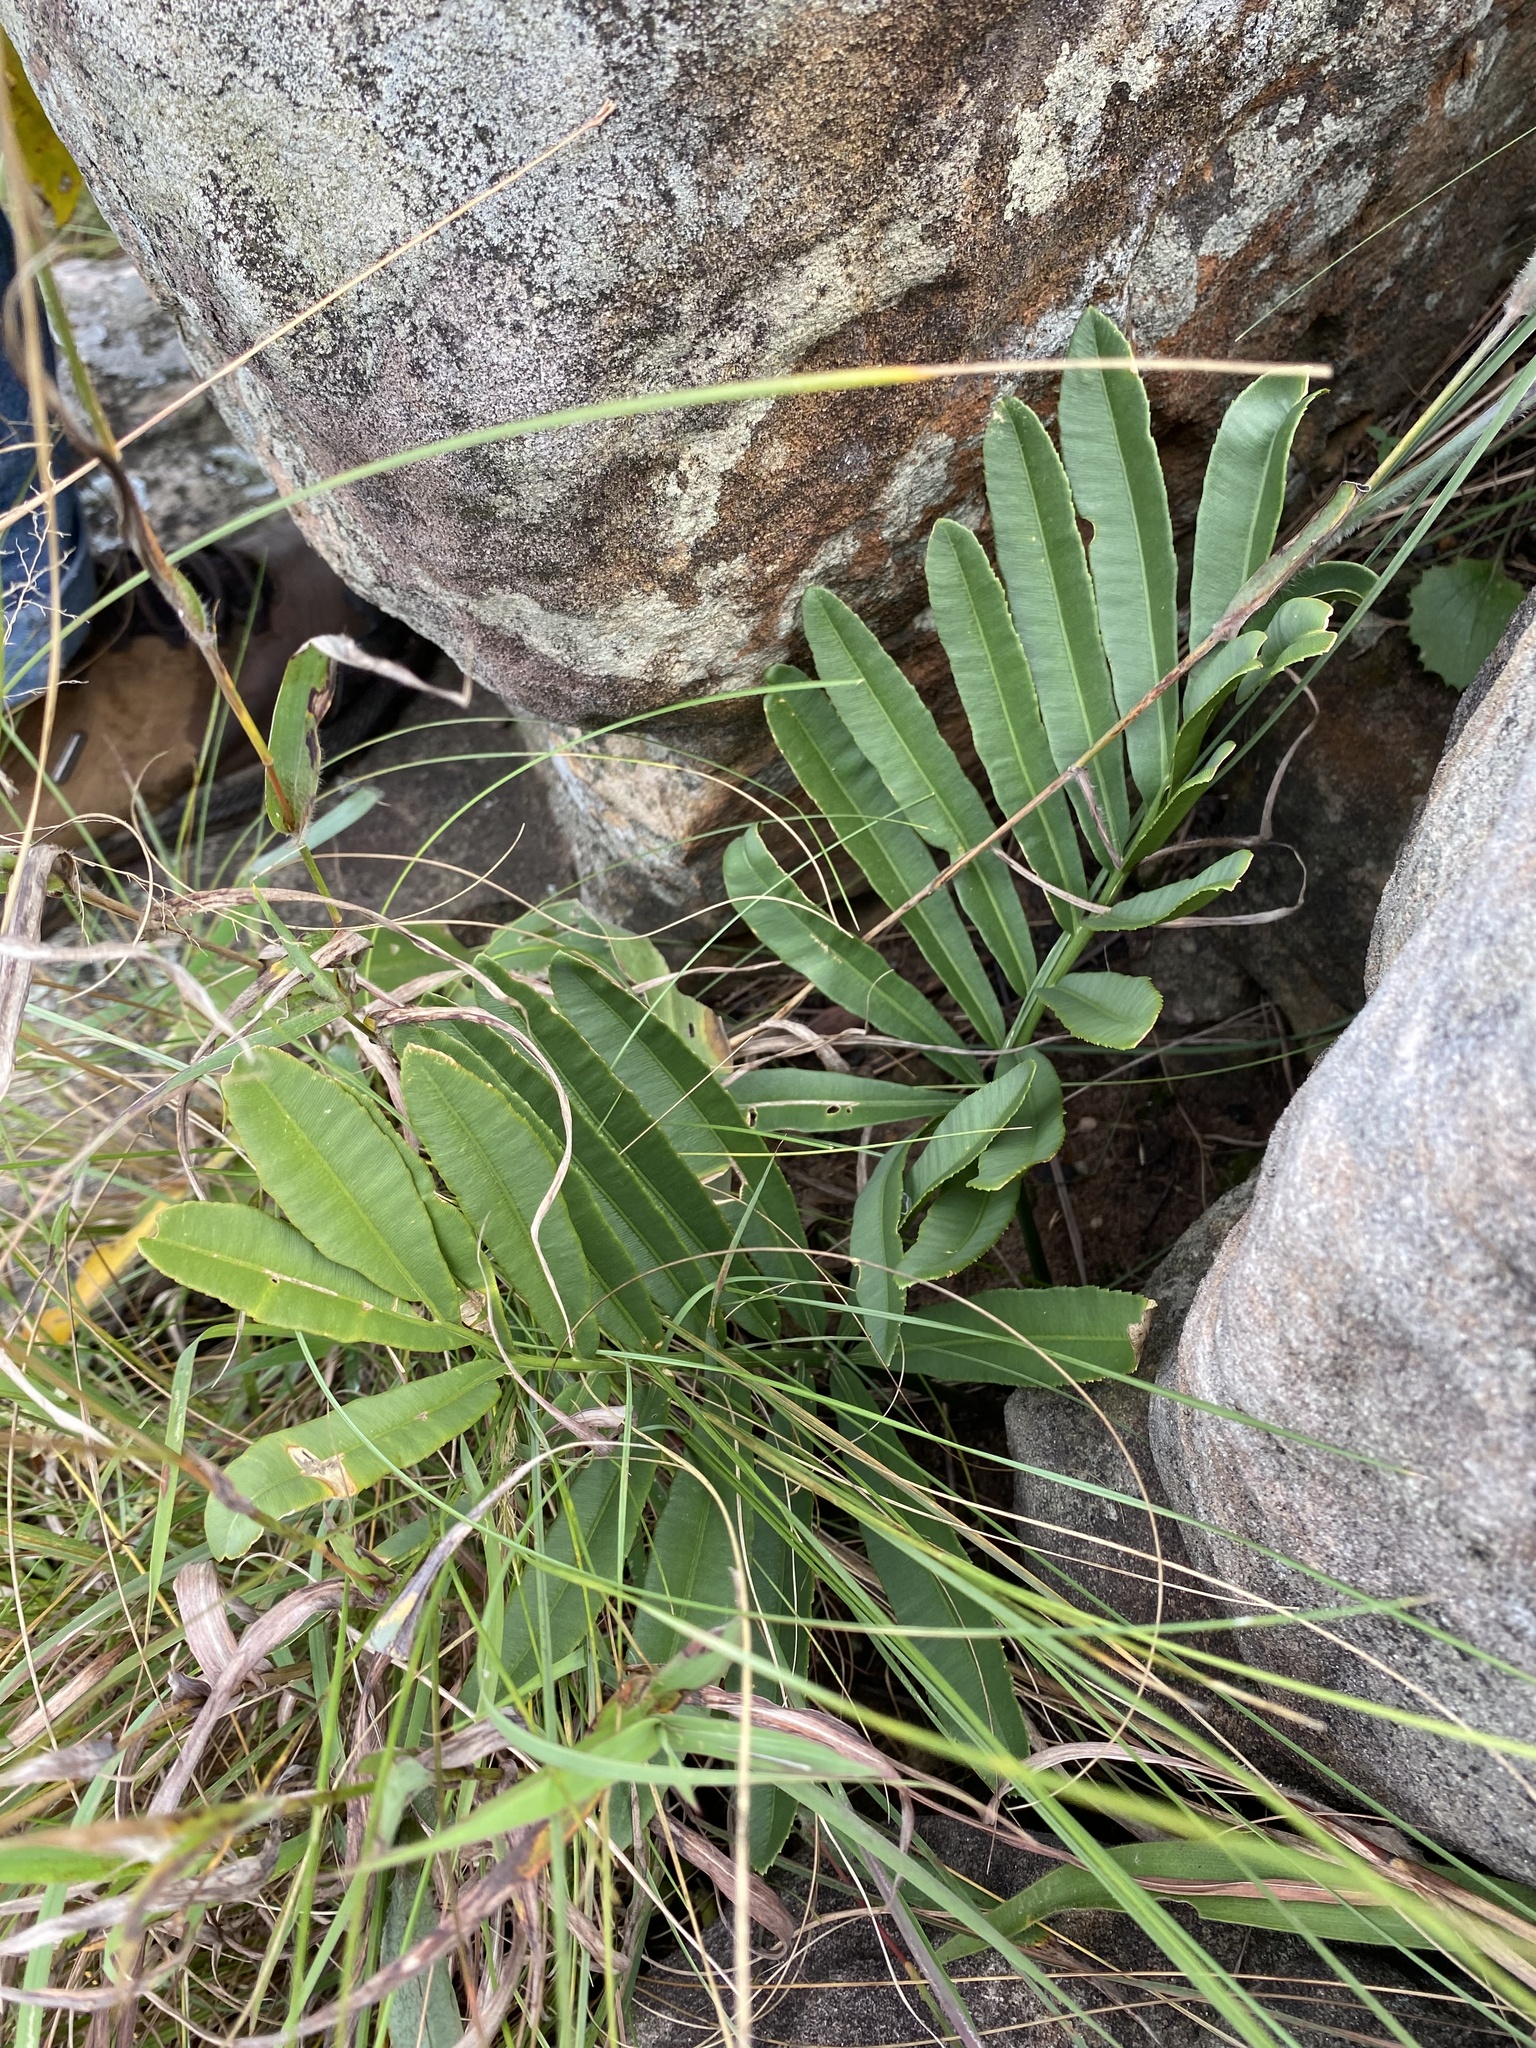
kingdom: Plantae
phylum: Tracheophyta
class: Cycadopsida
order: Cycadales
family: Zamiaceae
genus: Stangeria
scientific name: Stangeria eriopus
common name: Natal grass cycad
